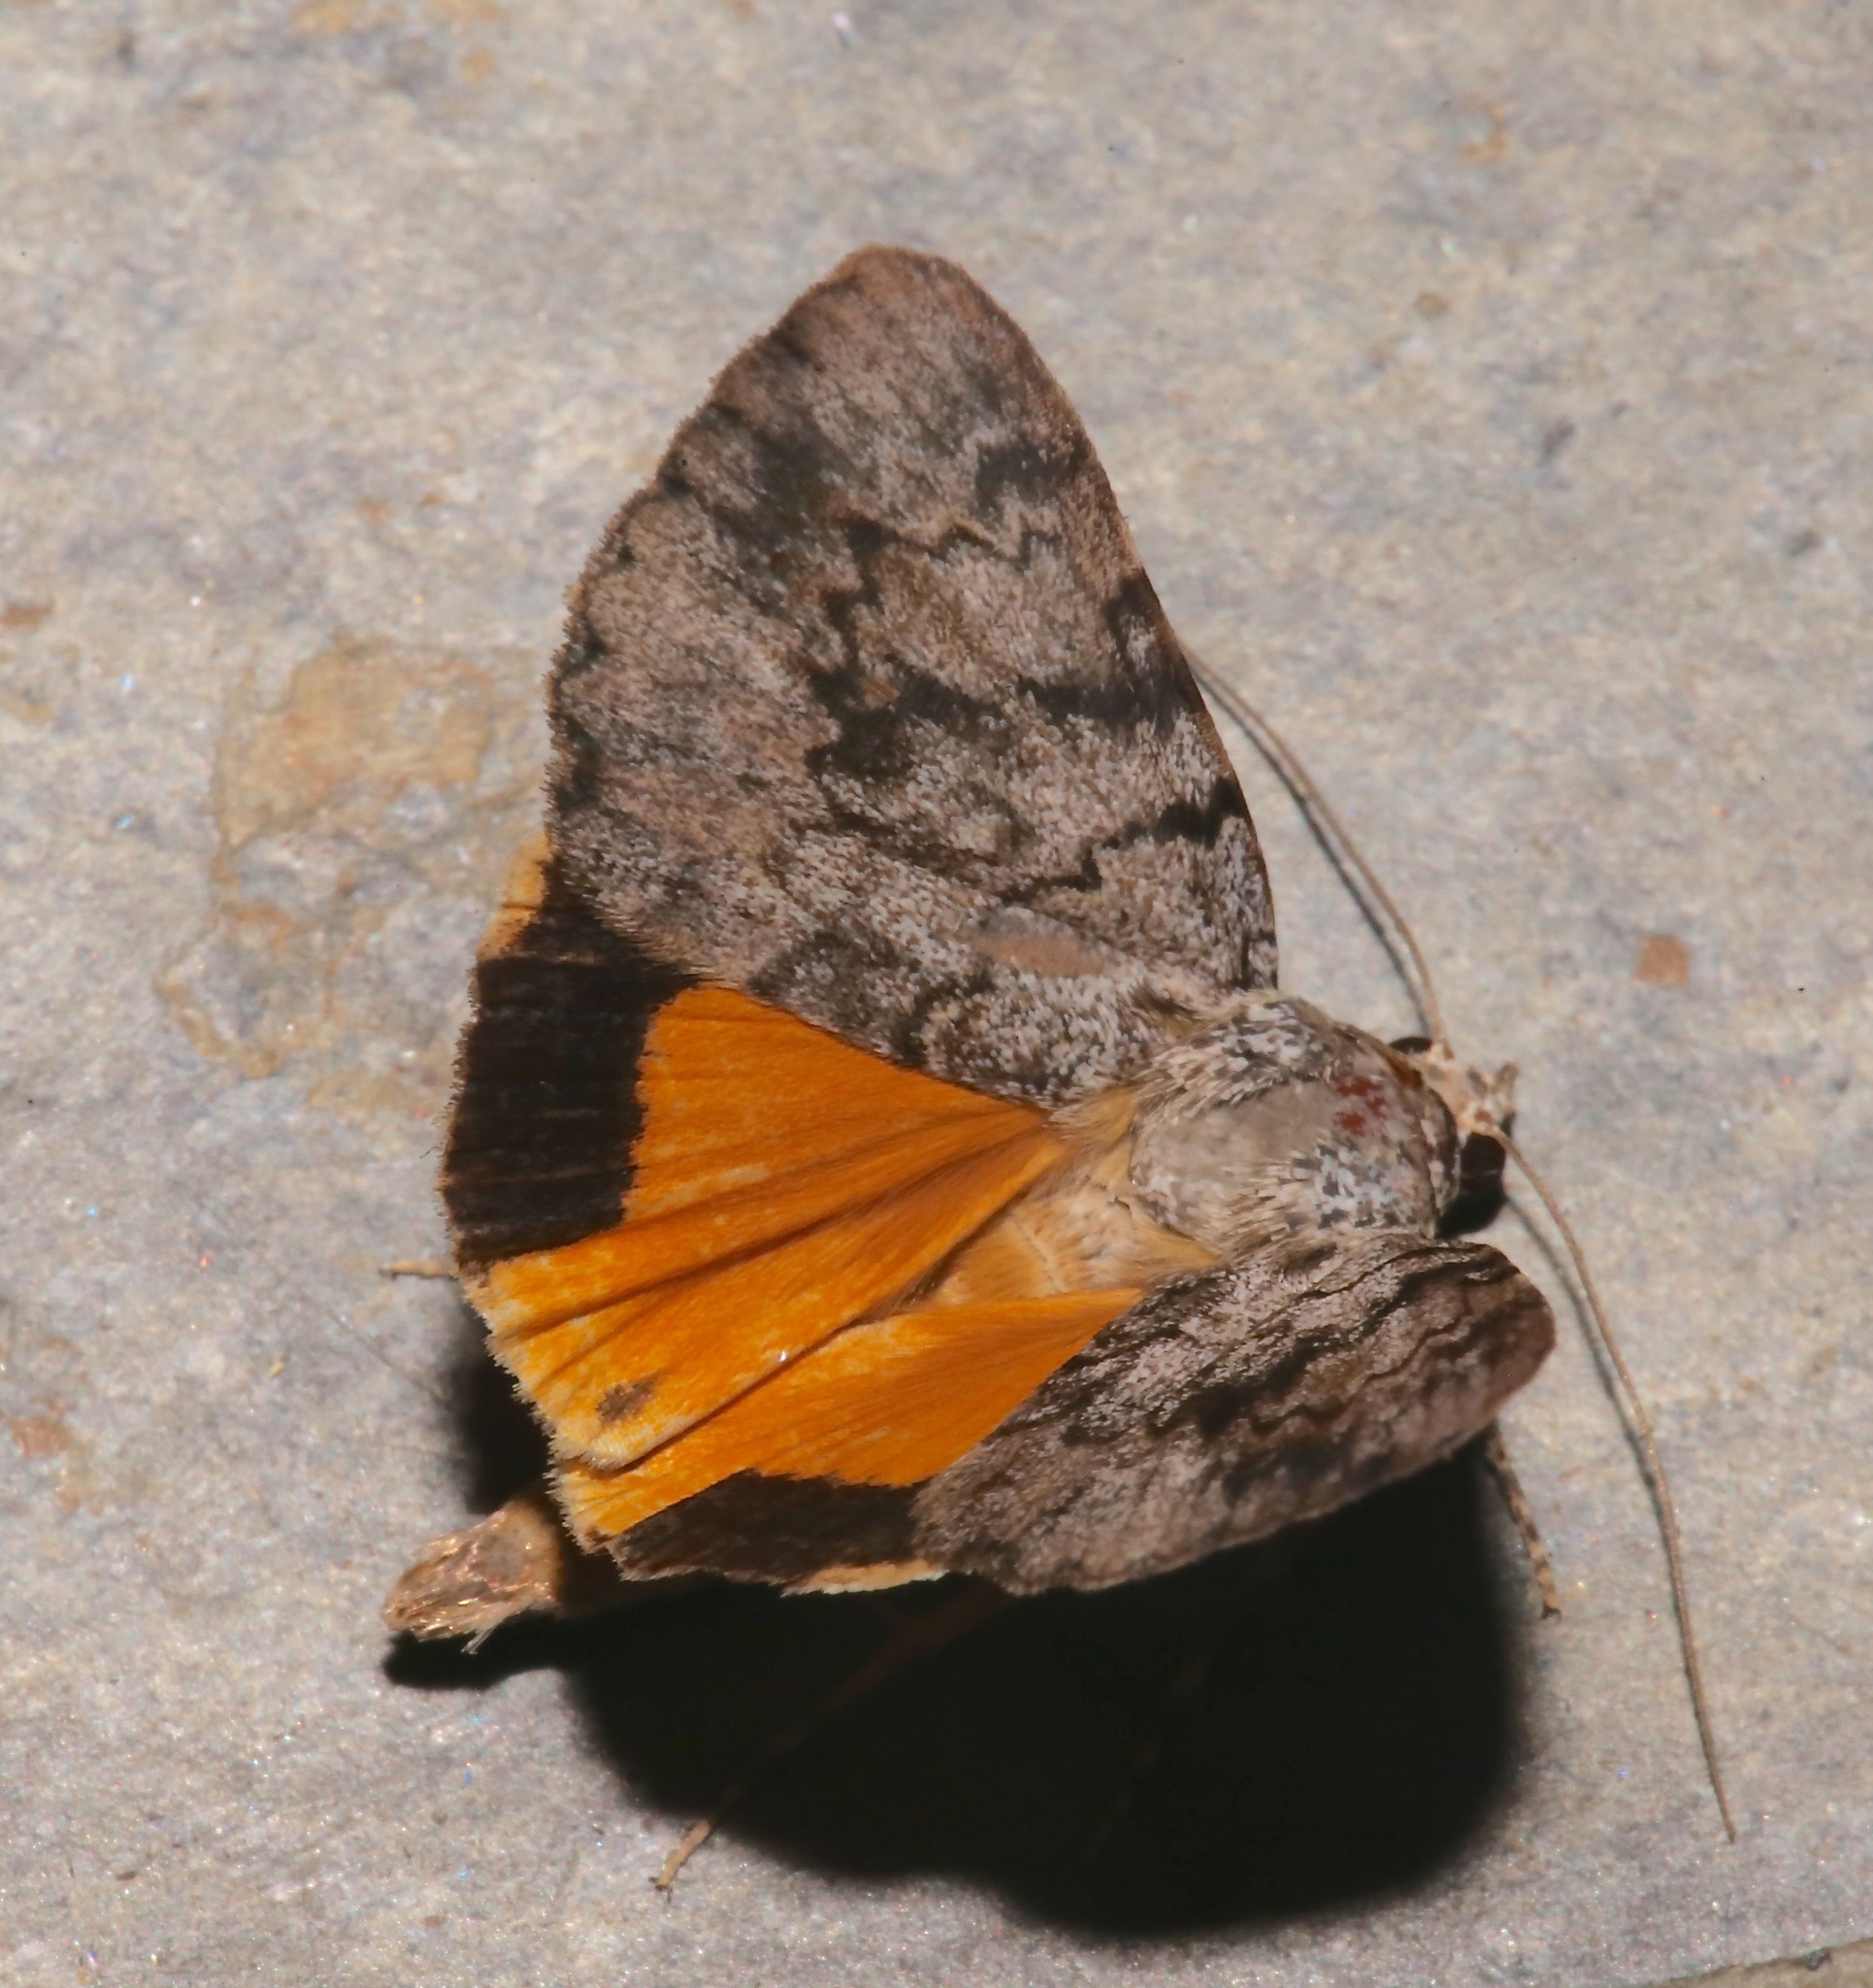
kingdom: Animalia
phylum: Arthropoda
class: Insecta
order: Lepidoptera
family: Erebidae
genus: Catocala
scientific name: Catocala amica
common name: Girlfriend underwing
